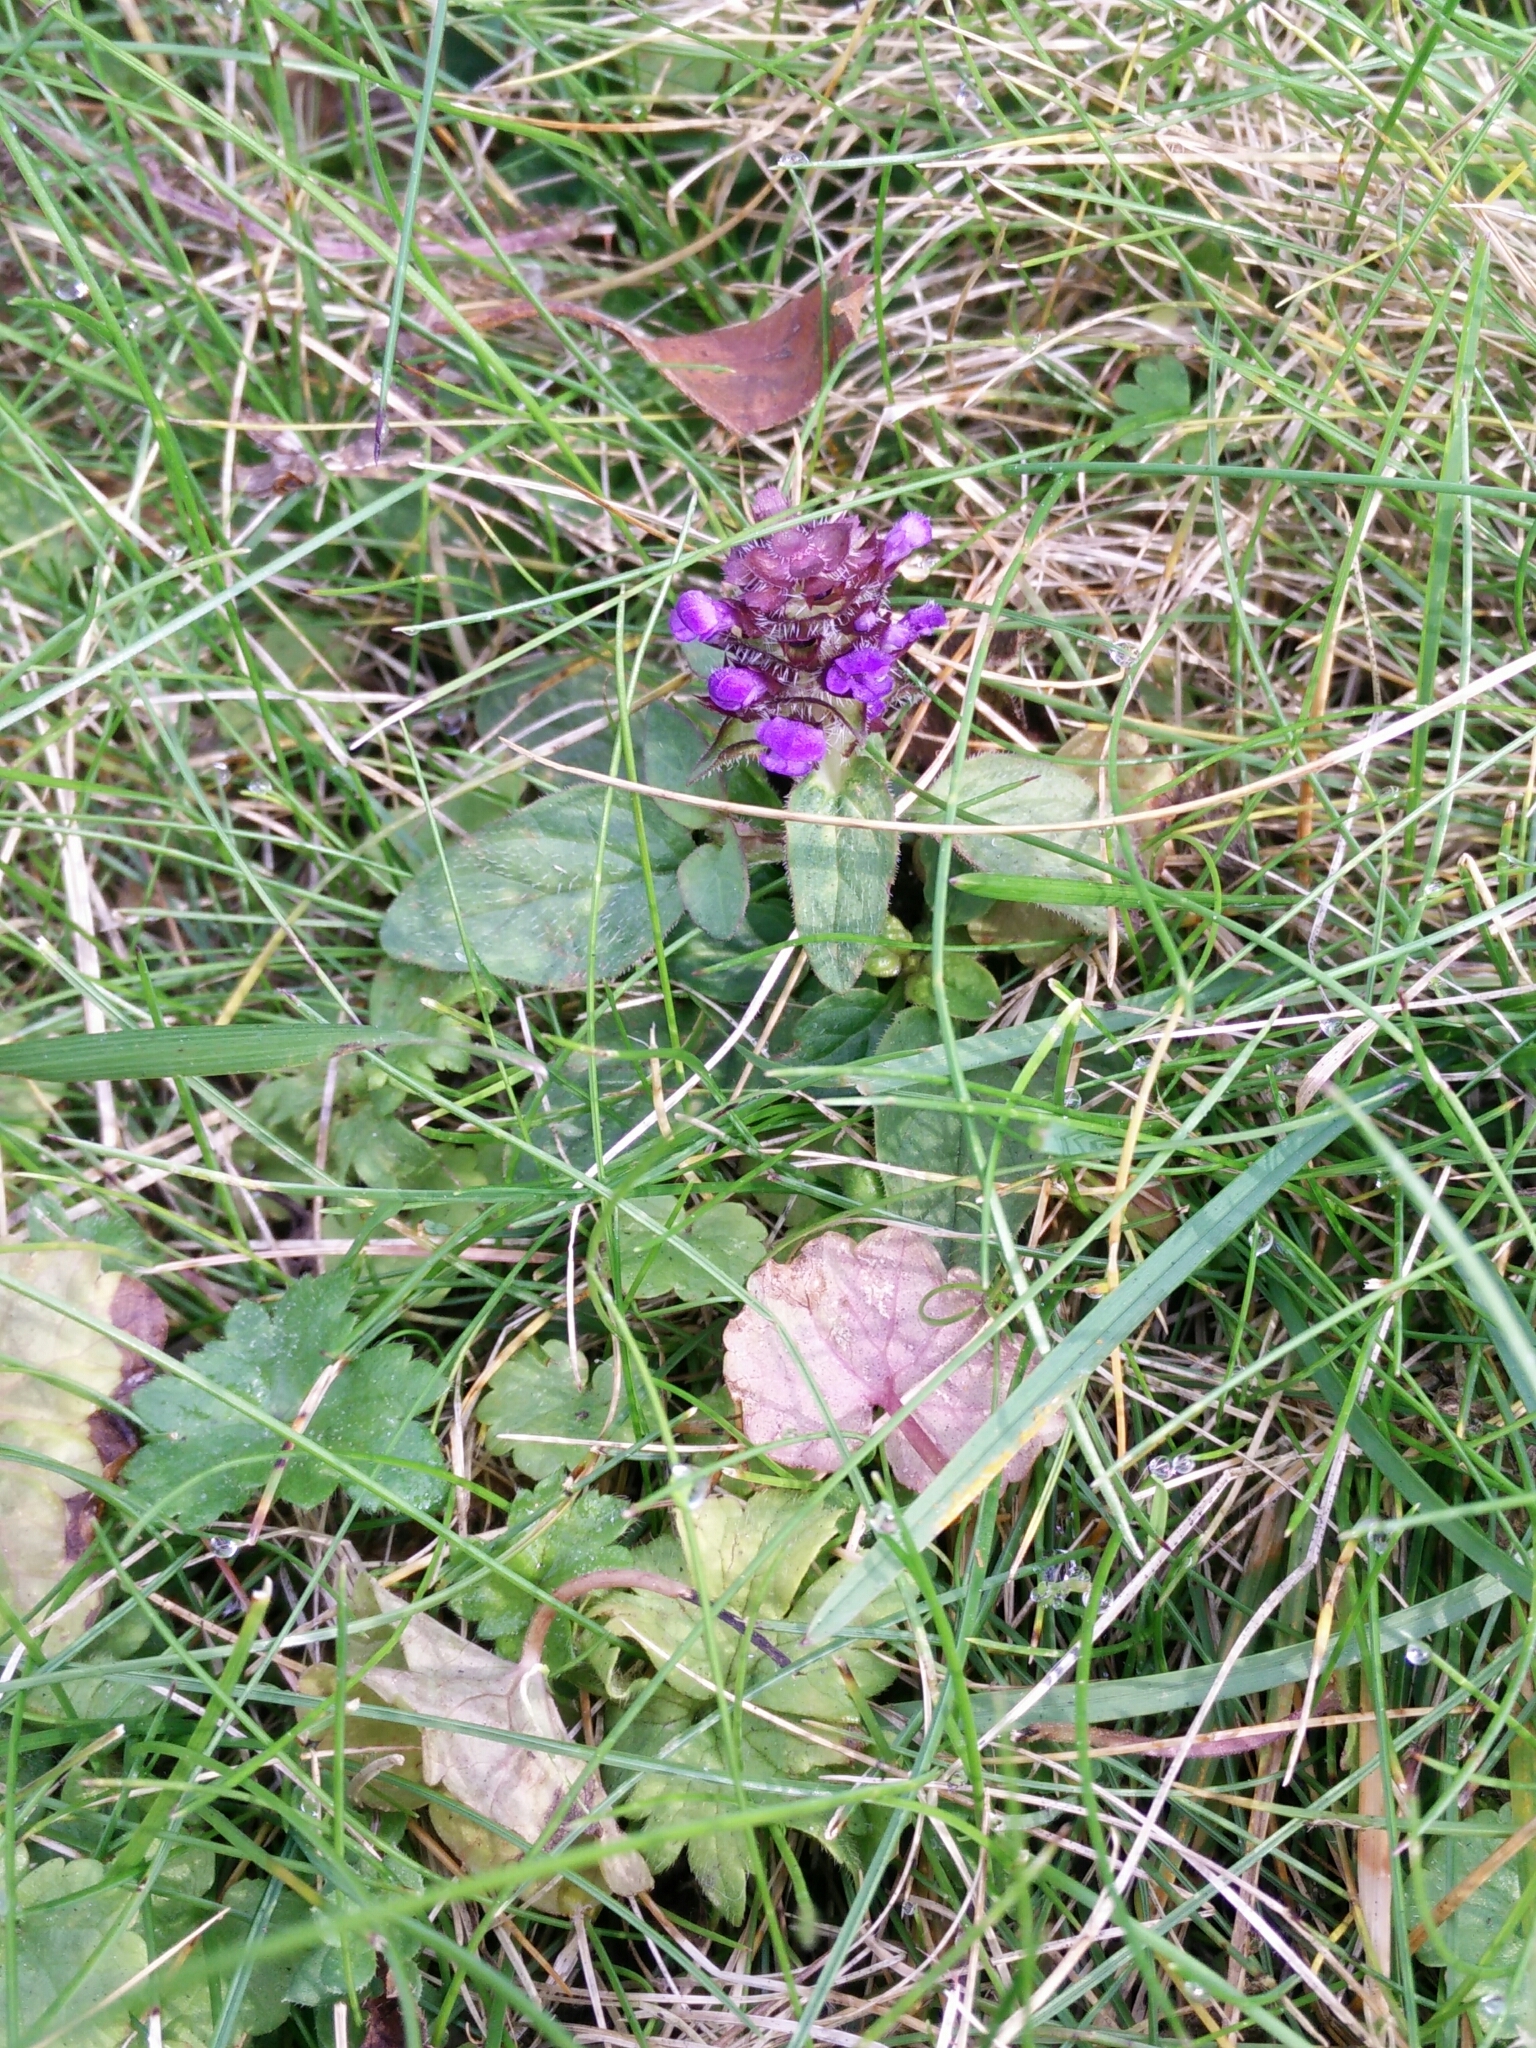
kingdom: Plantae
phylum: Tracheophyta
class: Magnoliopsida
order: Lamiales
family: Lamiaceae
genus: Prunella
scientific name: Prunella vulgaris
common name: Heal-all
